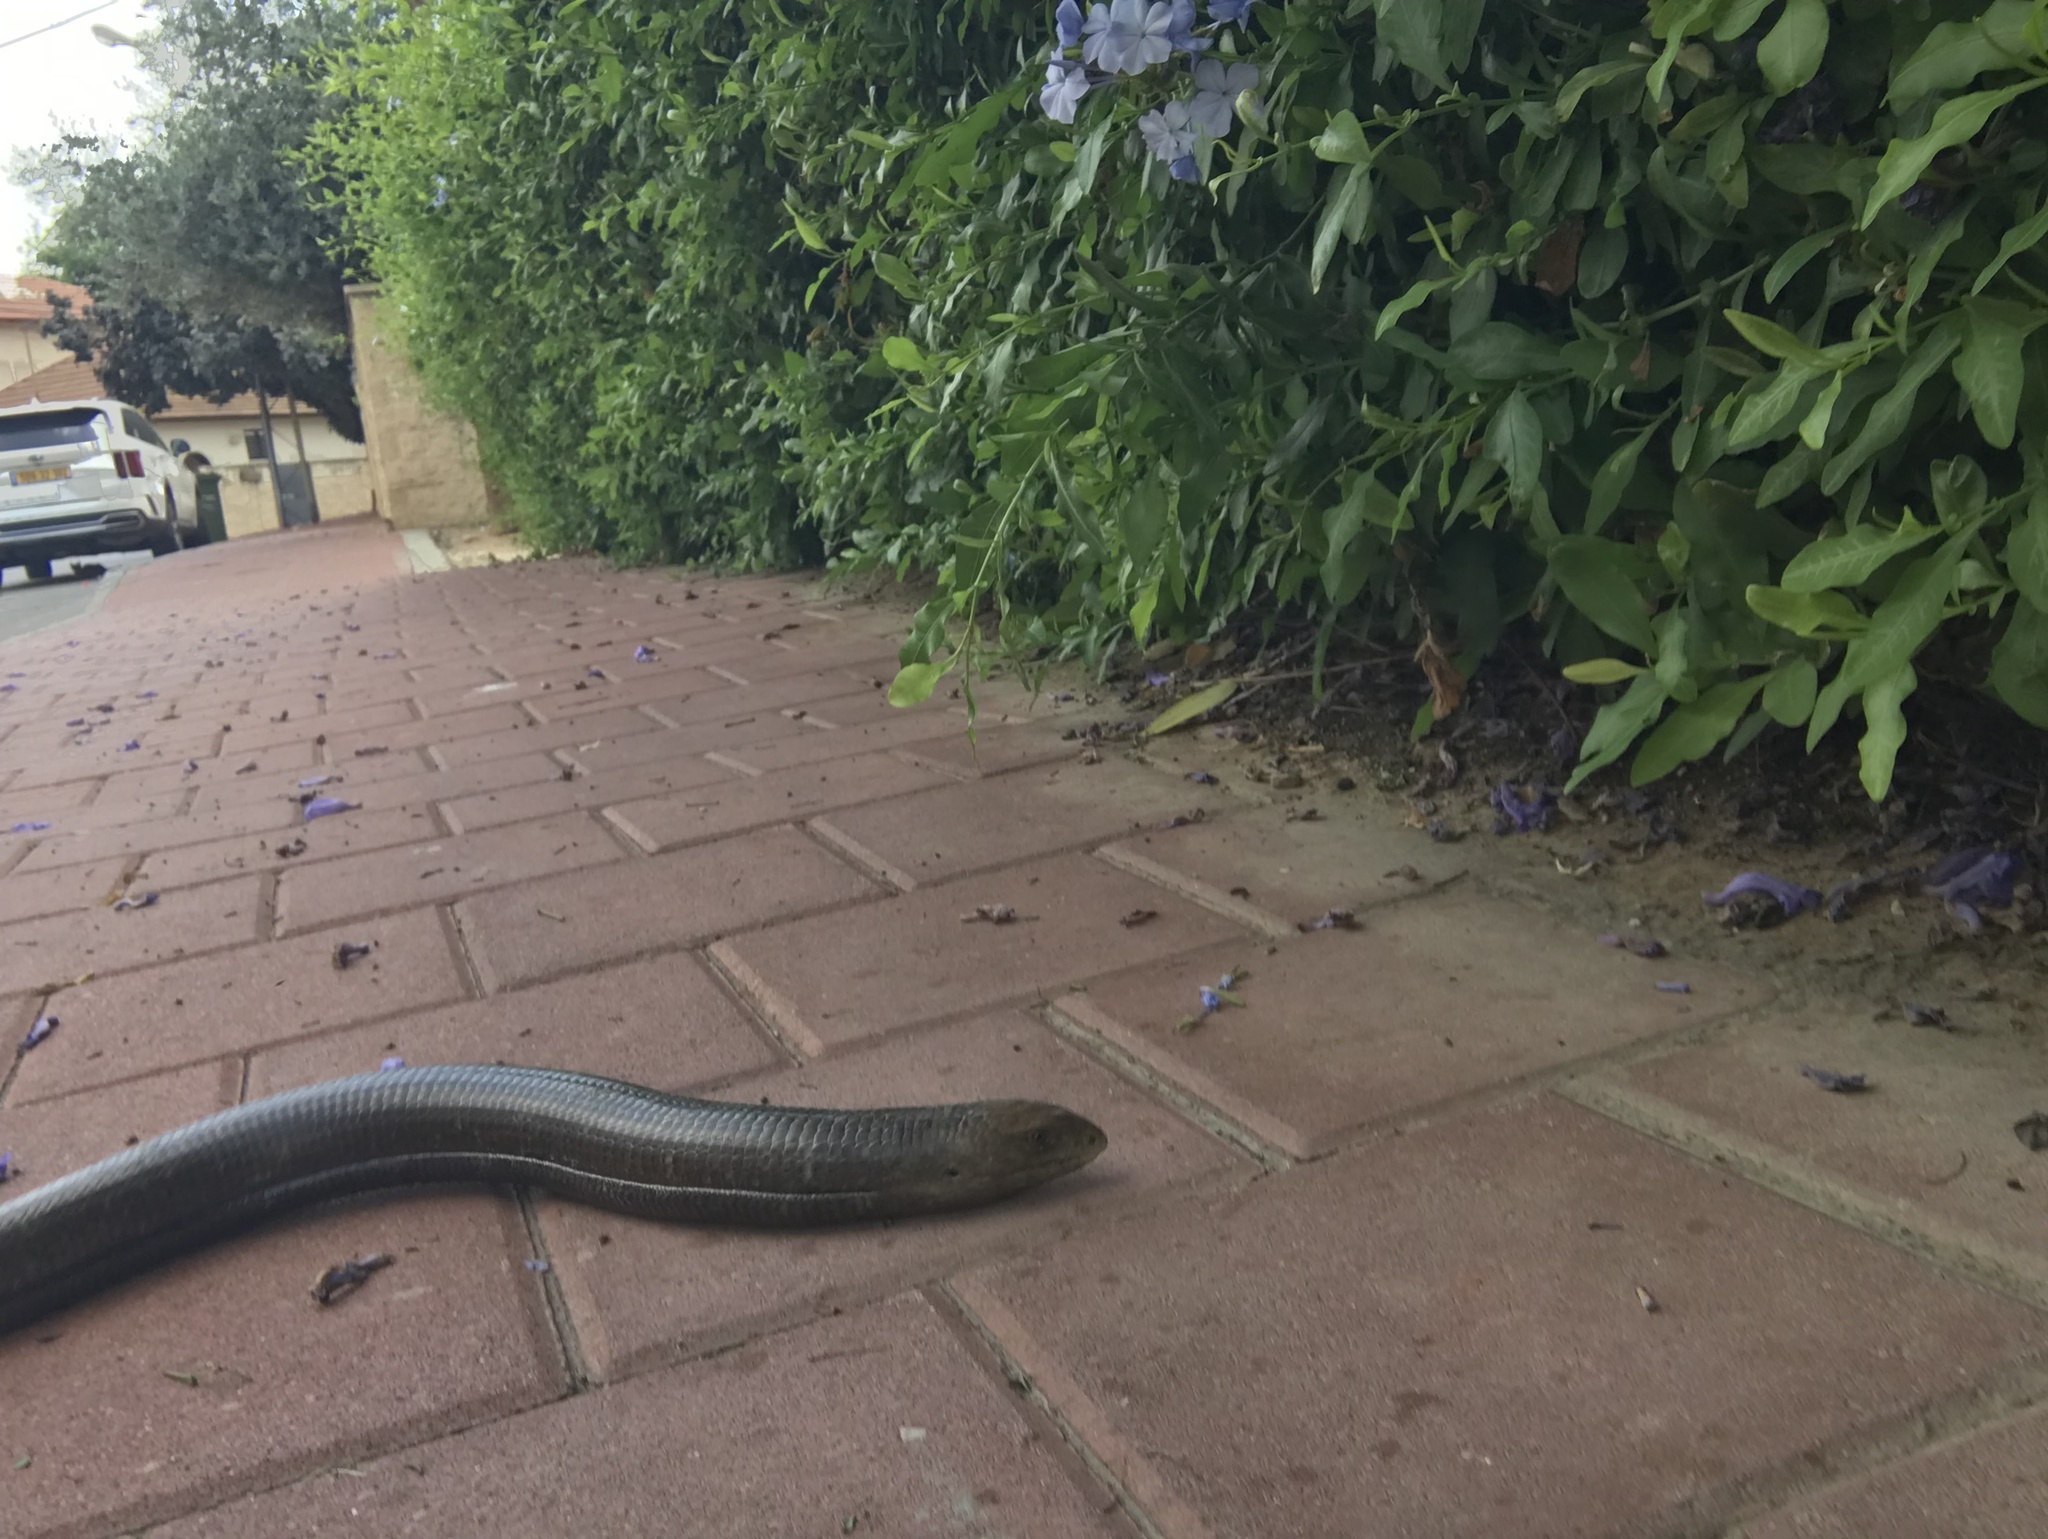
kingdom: Animalia
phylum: Chordata
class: Squamata
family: Anguidae
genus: Pseudopus
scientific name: Pseudopus apodus
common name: European glass lizard
